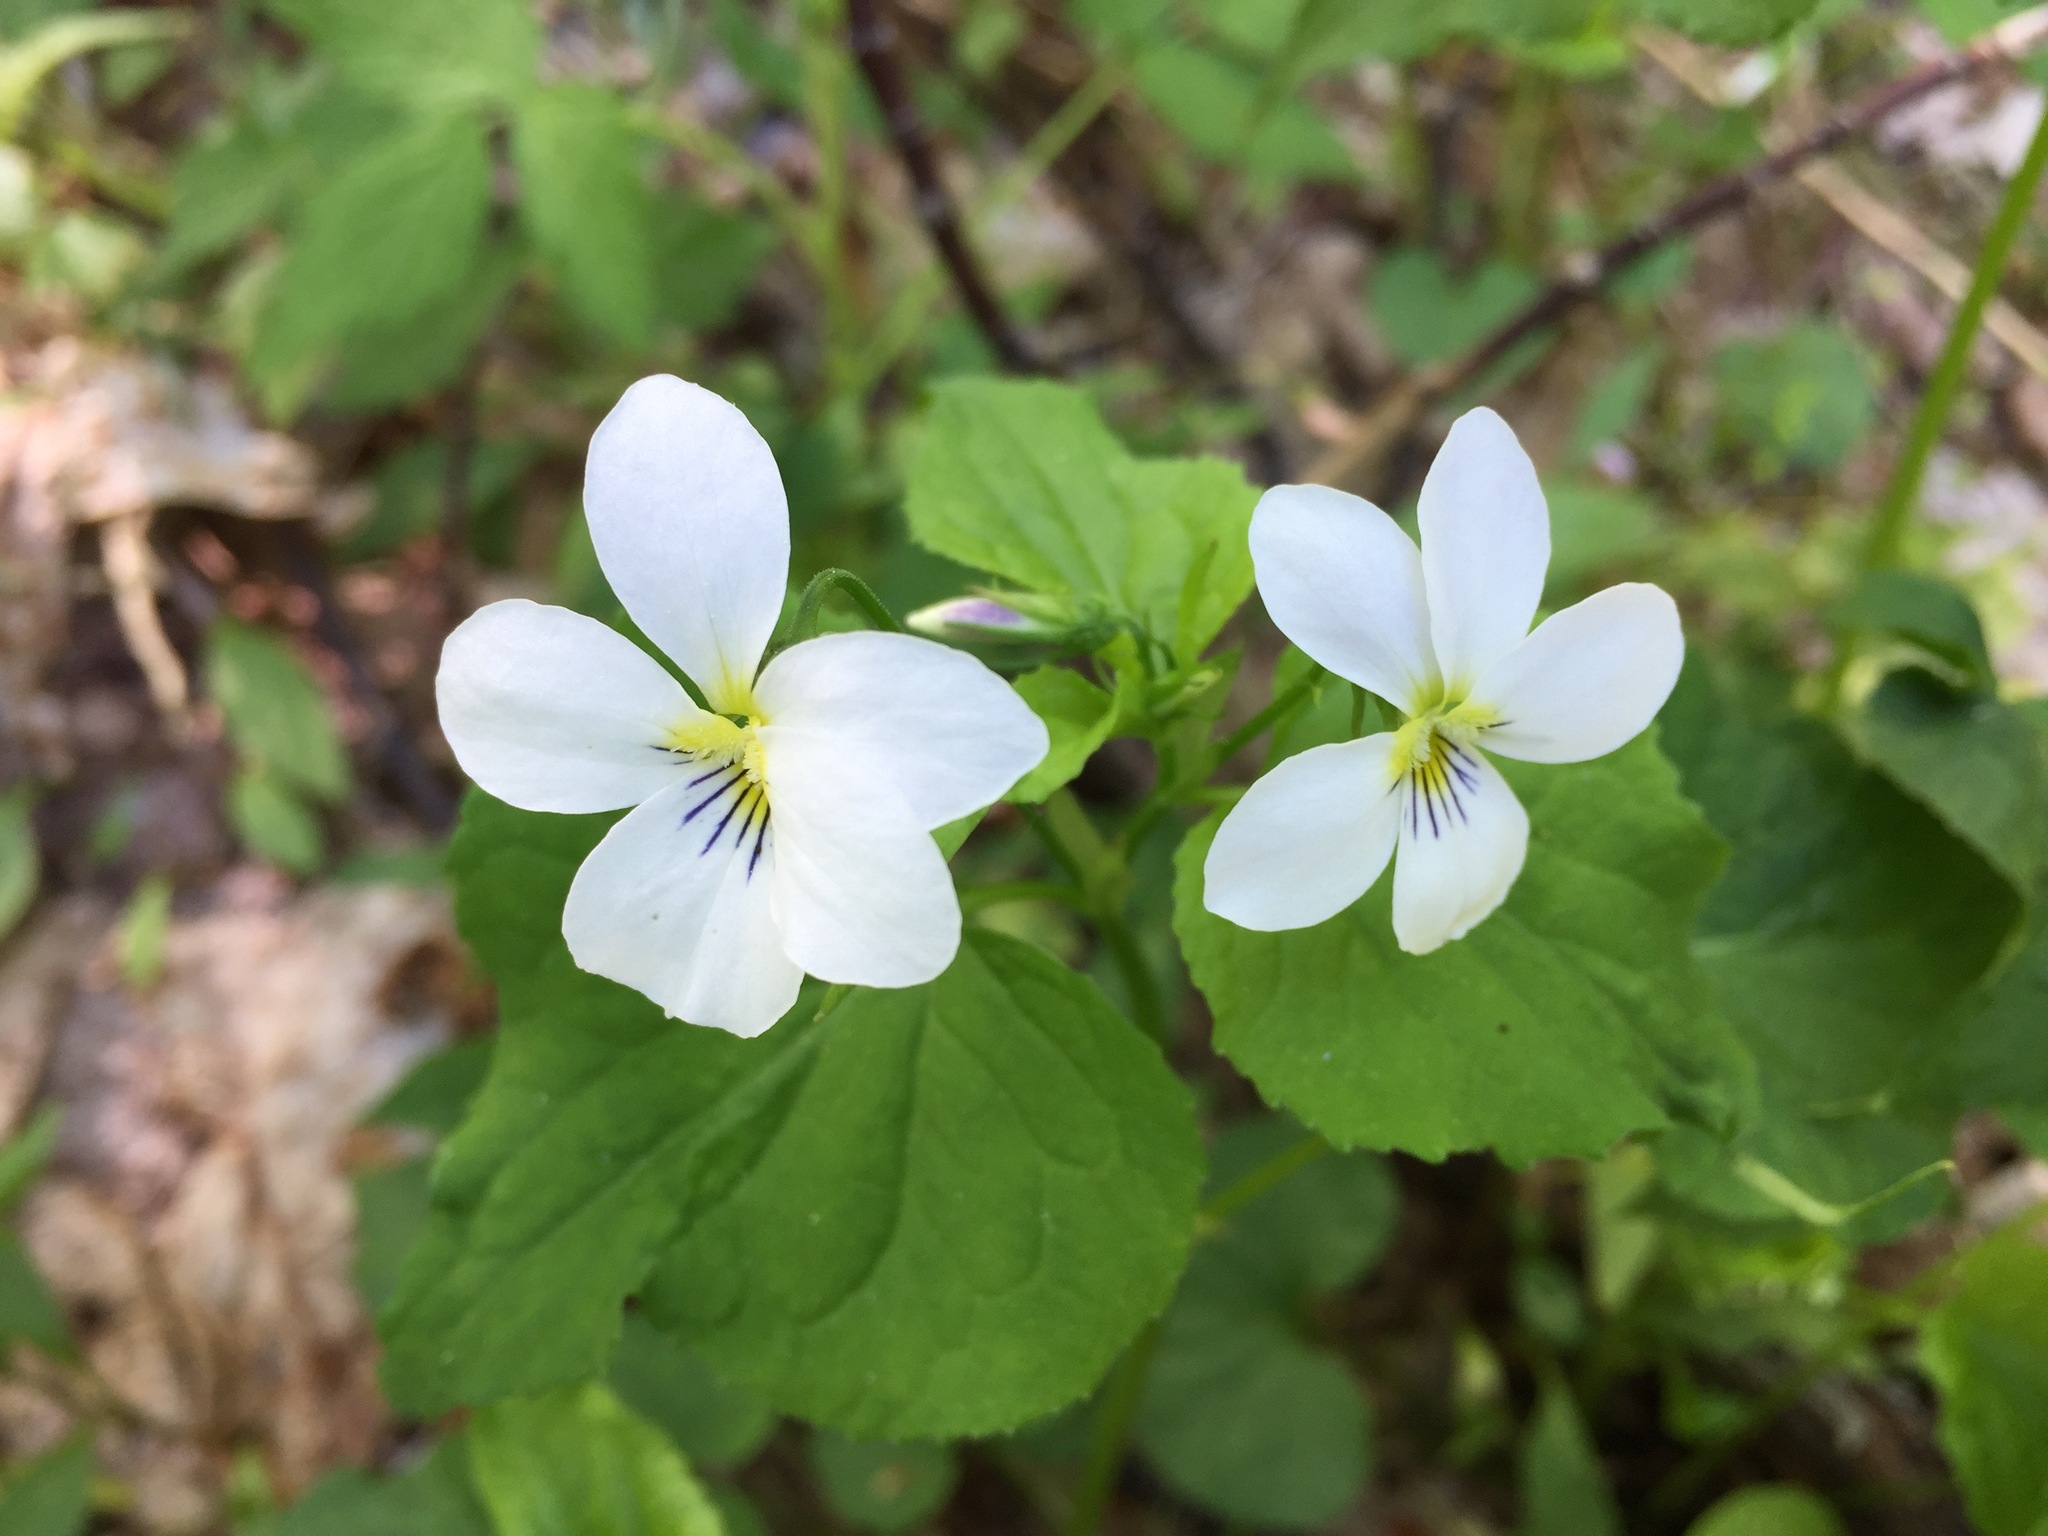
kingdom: Plantae
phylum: Tracheophyta
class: Magnoliopsida
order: Malpighiales
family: Violaceae
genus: Viola
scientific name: Viola canadensis
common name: Canada violet
